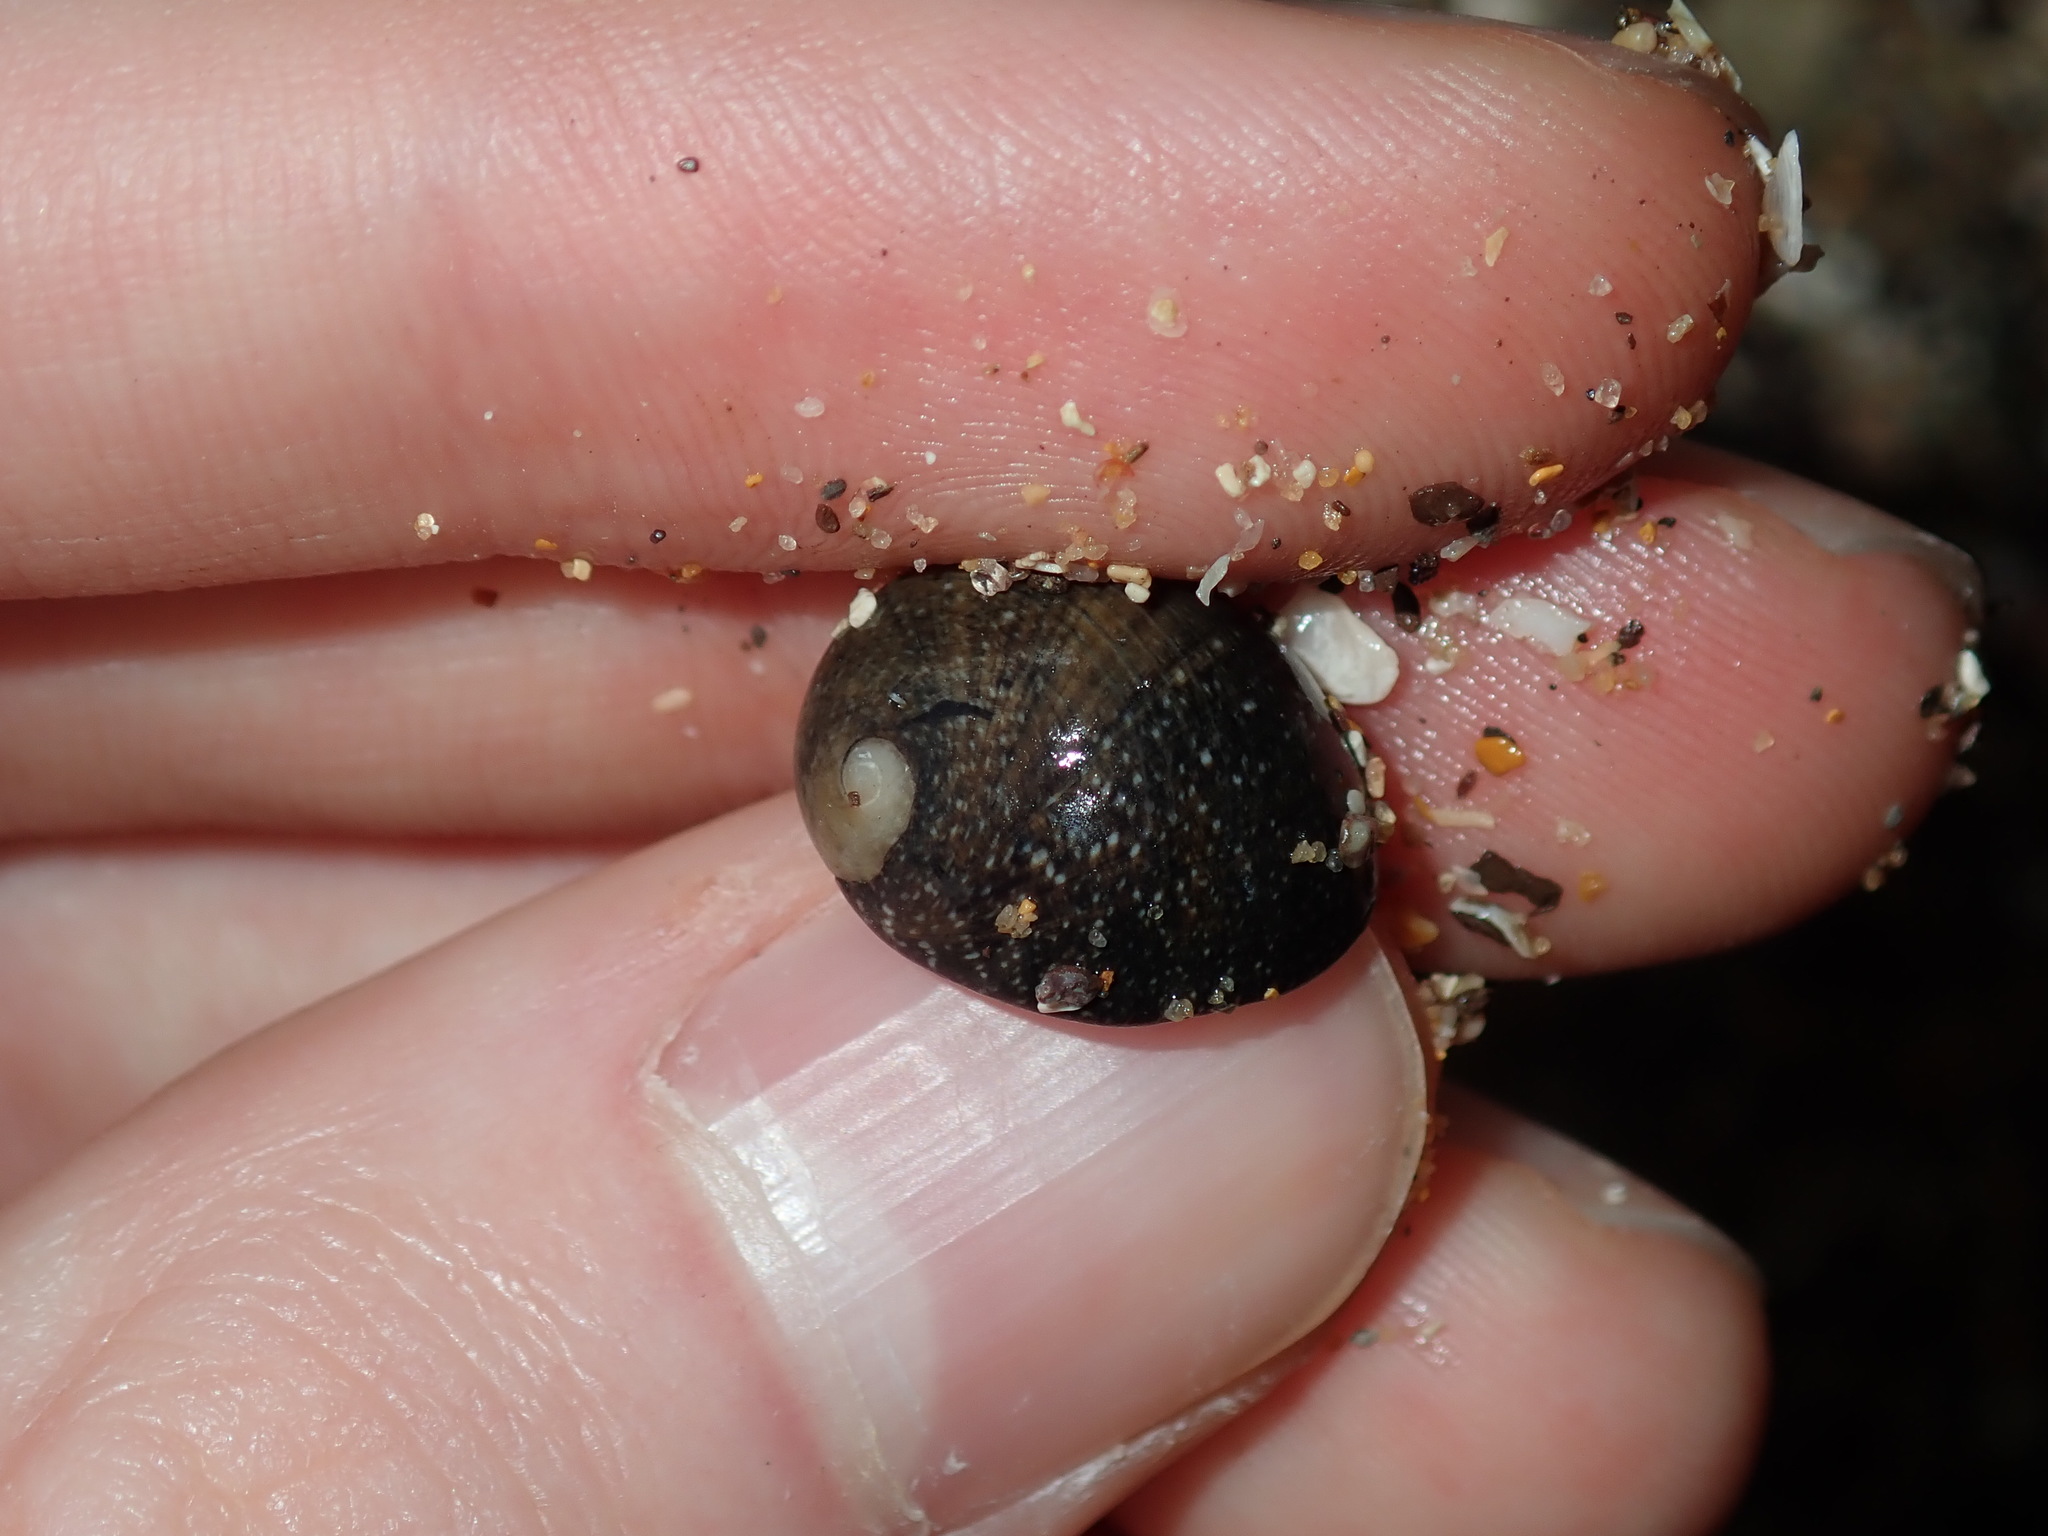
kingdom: Animalia
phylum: Mollusca
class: Gastropoda
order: Cycloneritida
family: Neritidae
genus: Nerita
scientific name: Nerita polita
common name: Polished nerite
